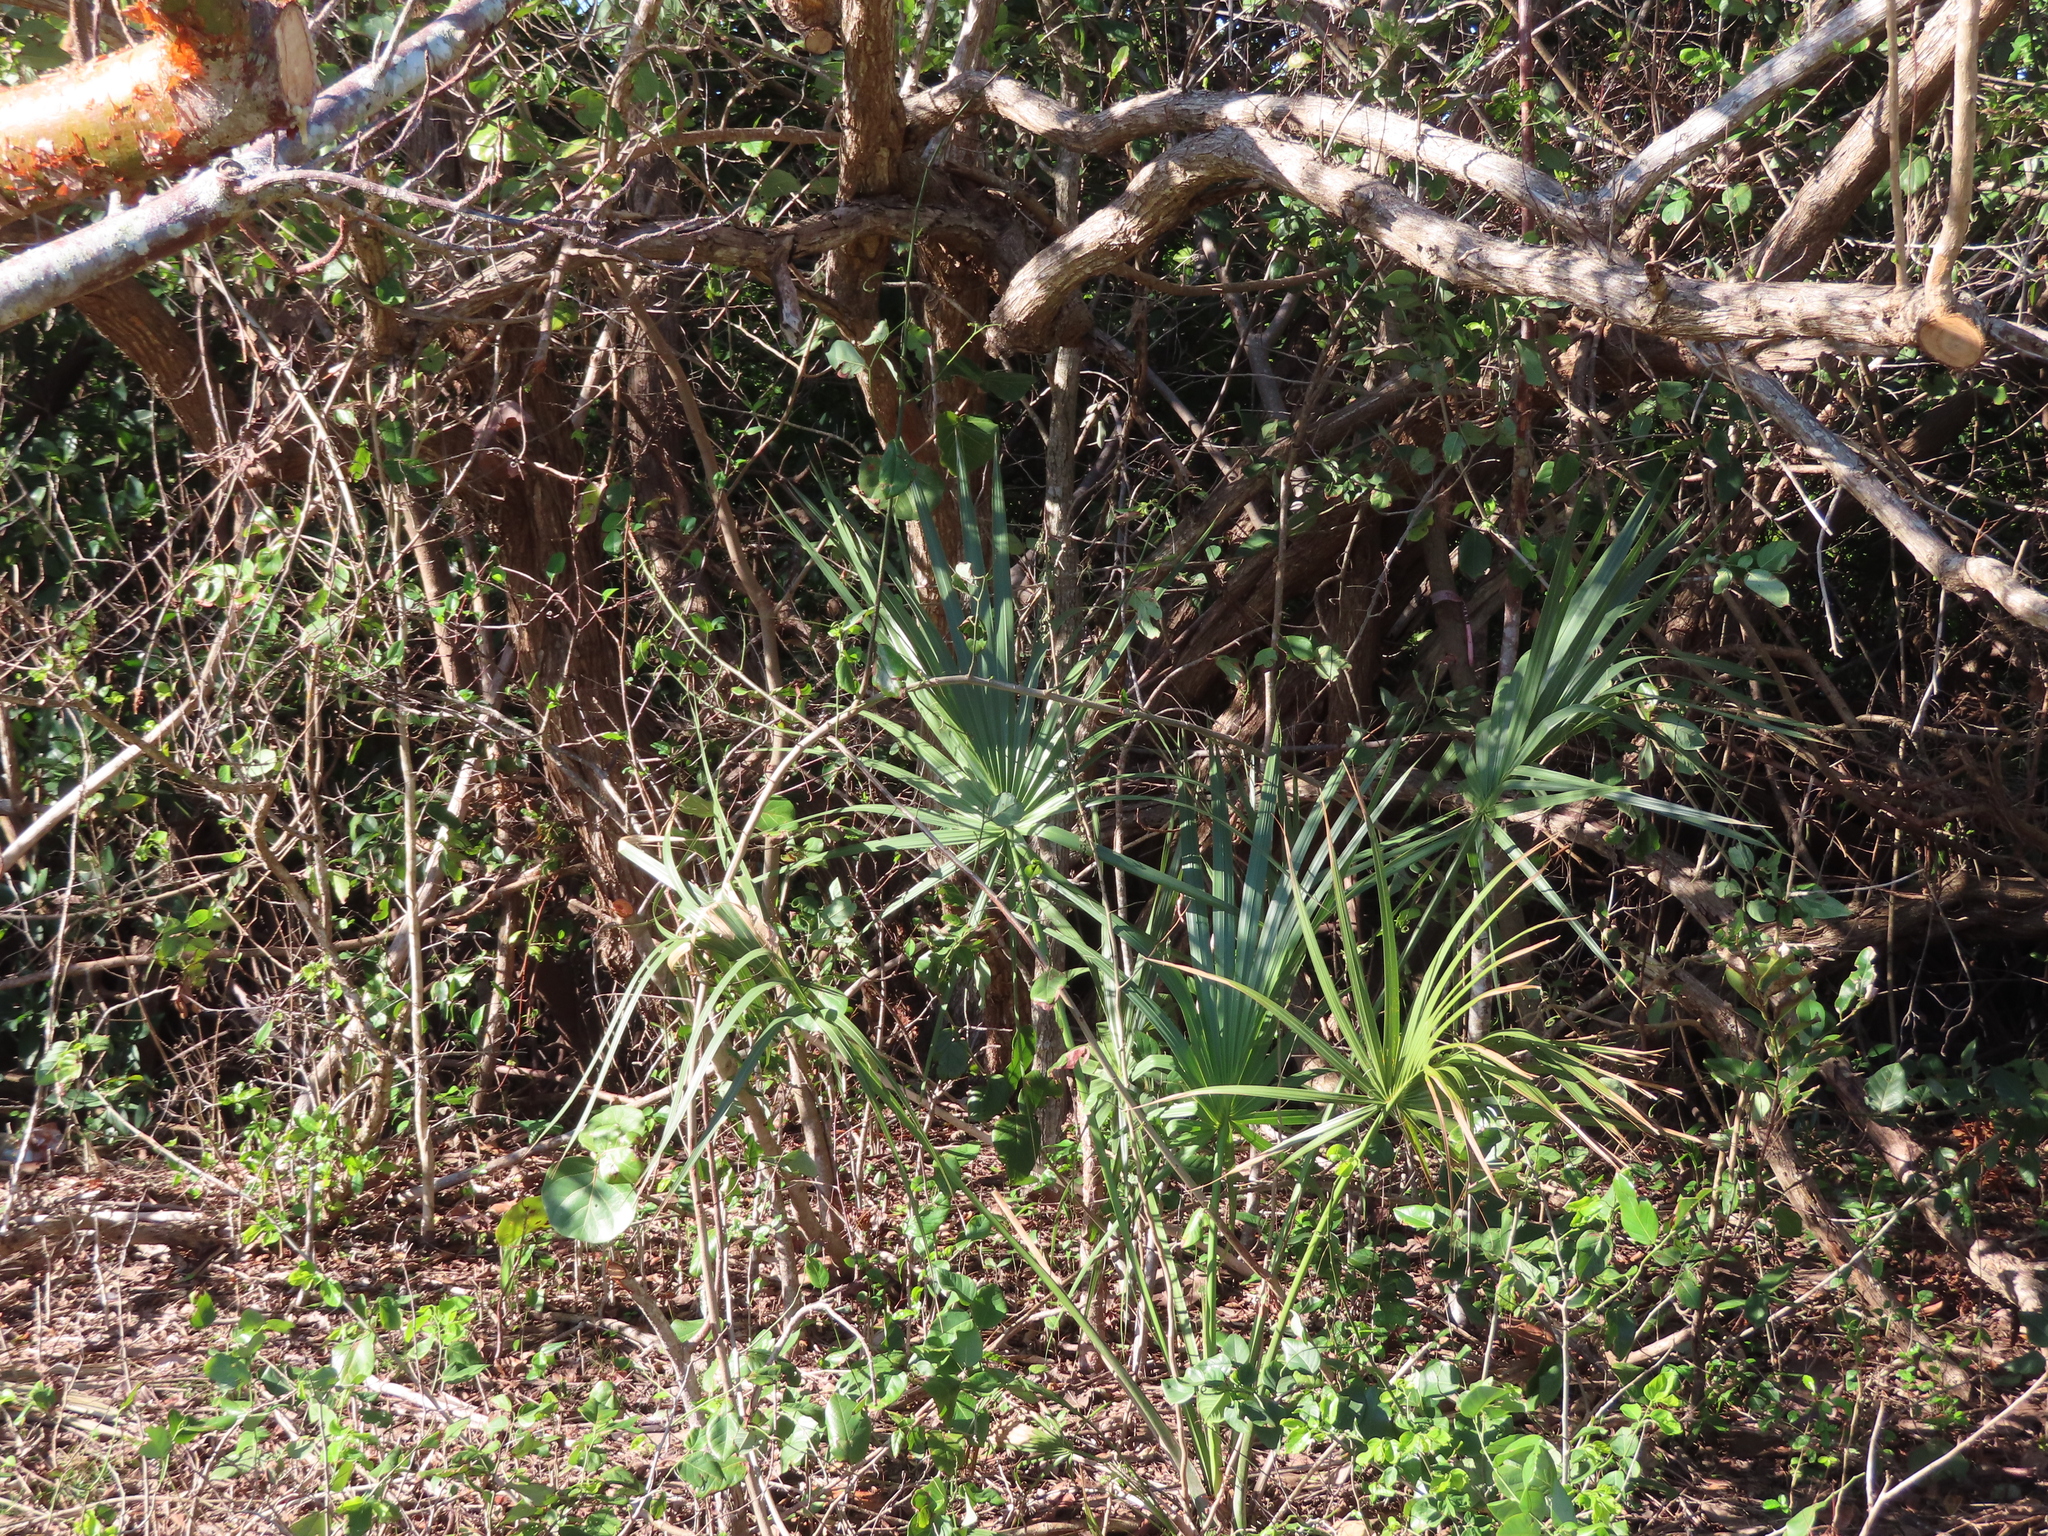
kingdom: Plantae
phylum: Tracheophyta
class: Liliopsida
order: Arecales
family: Arecaceae
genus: Sabal
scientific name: Sabal palmetto
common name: Blue palmetto
